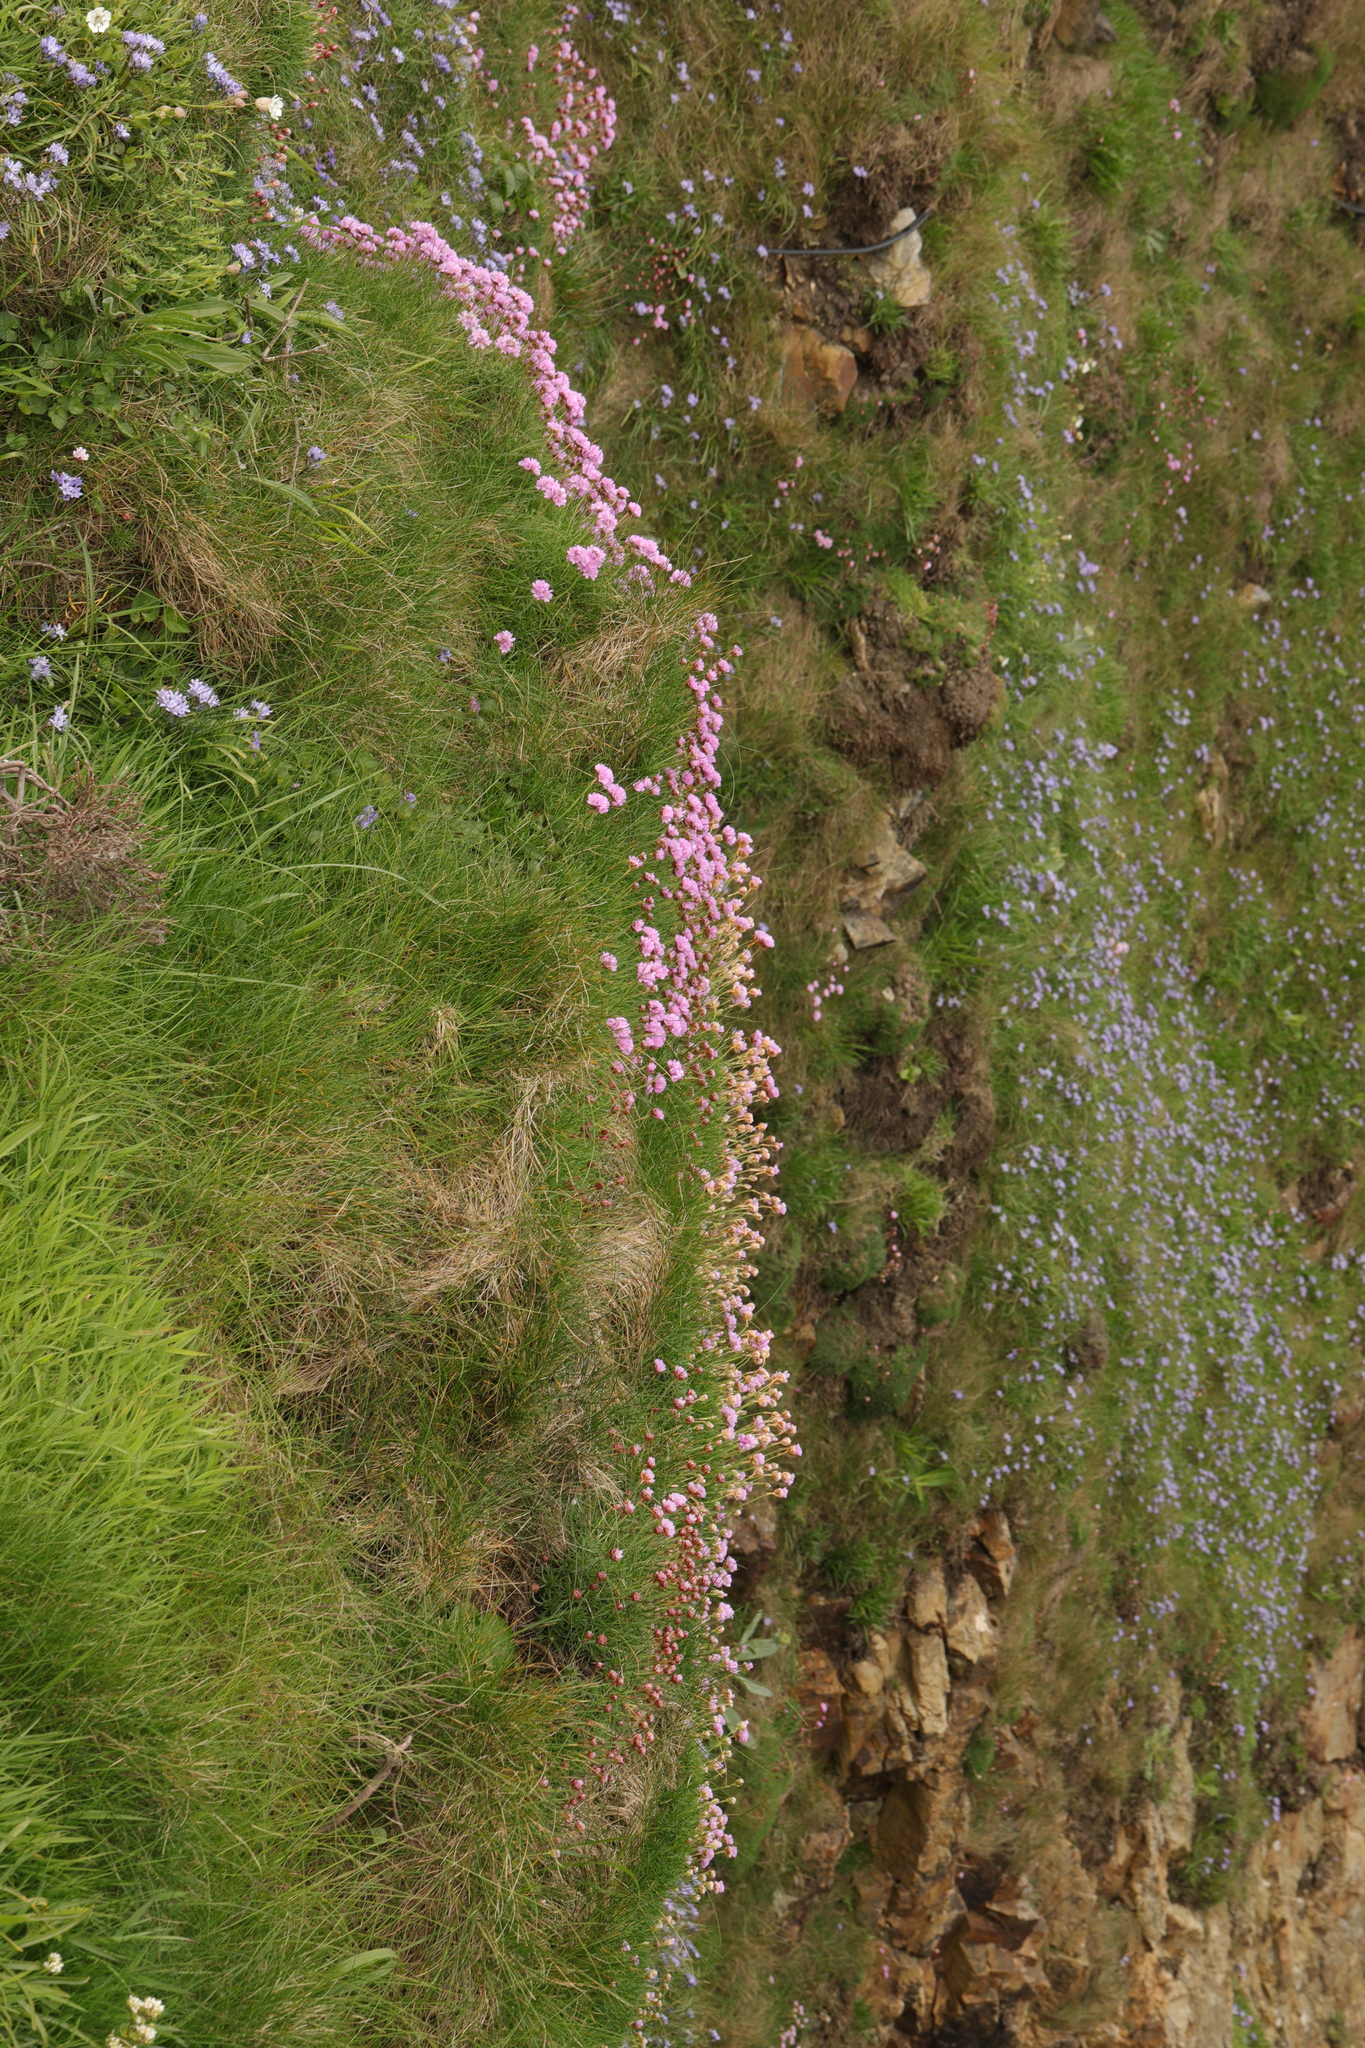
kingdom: Plantae
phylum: Tracheophyta
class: Magnoliopsida
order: Caryophyllales
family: Plumbaginaceae
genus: Armeria
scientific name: Armeria maritima
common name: Thrift
